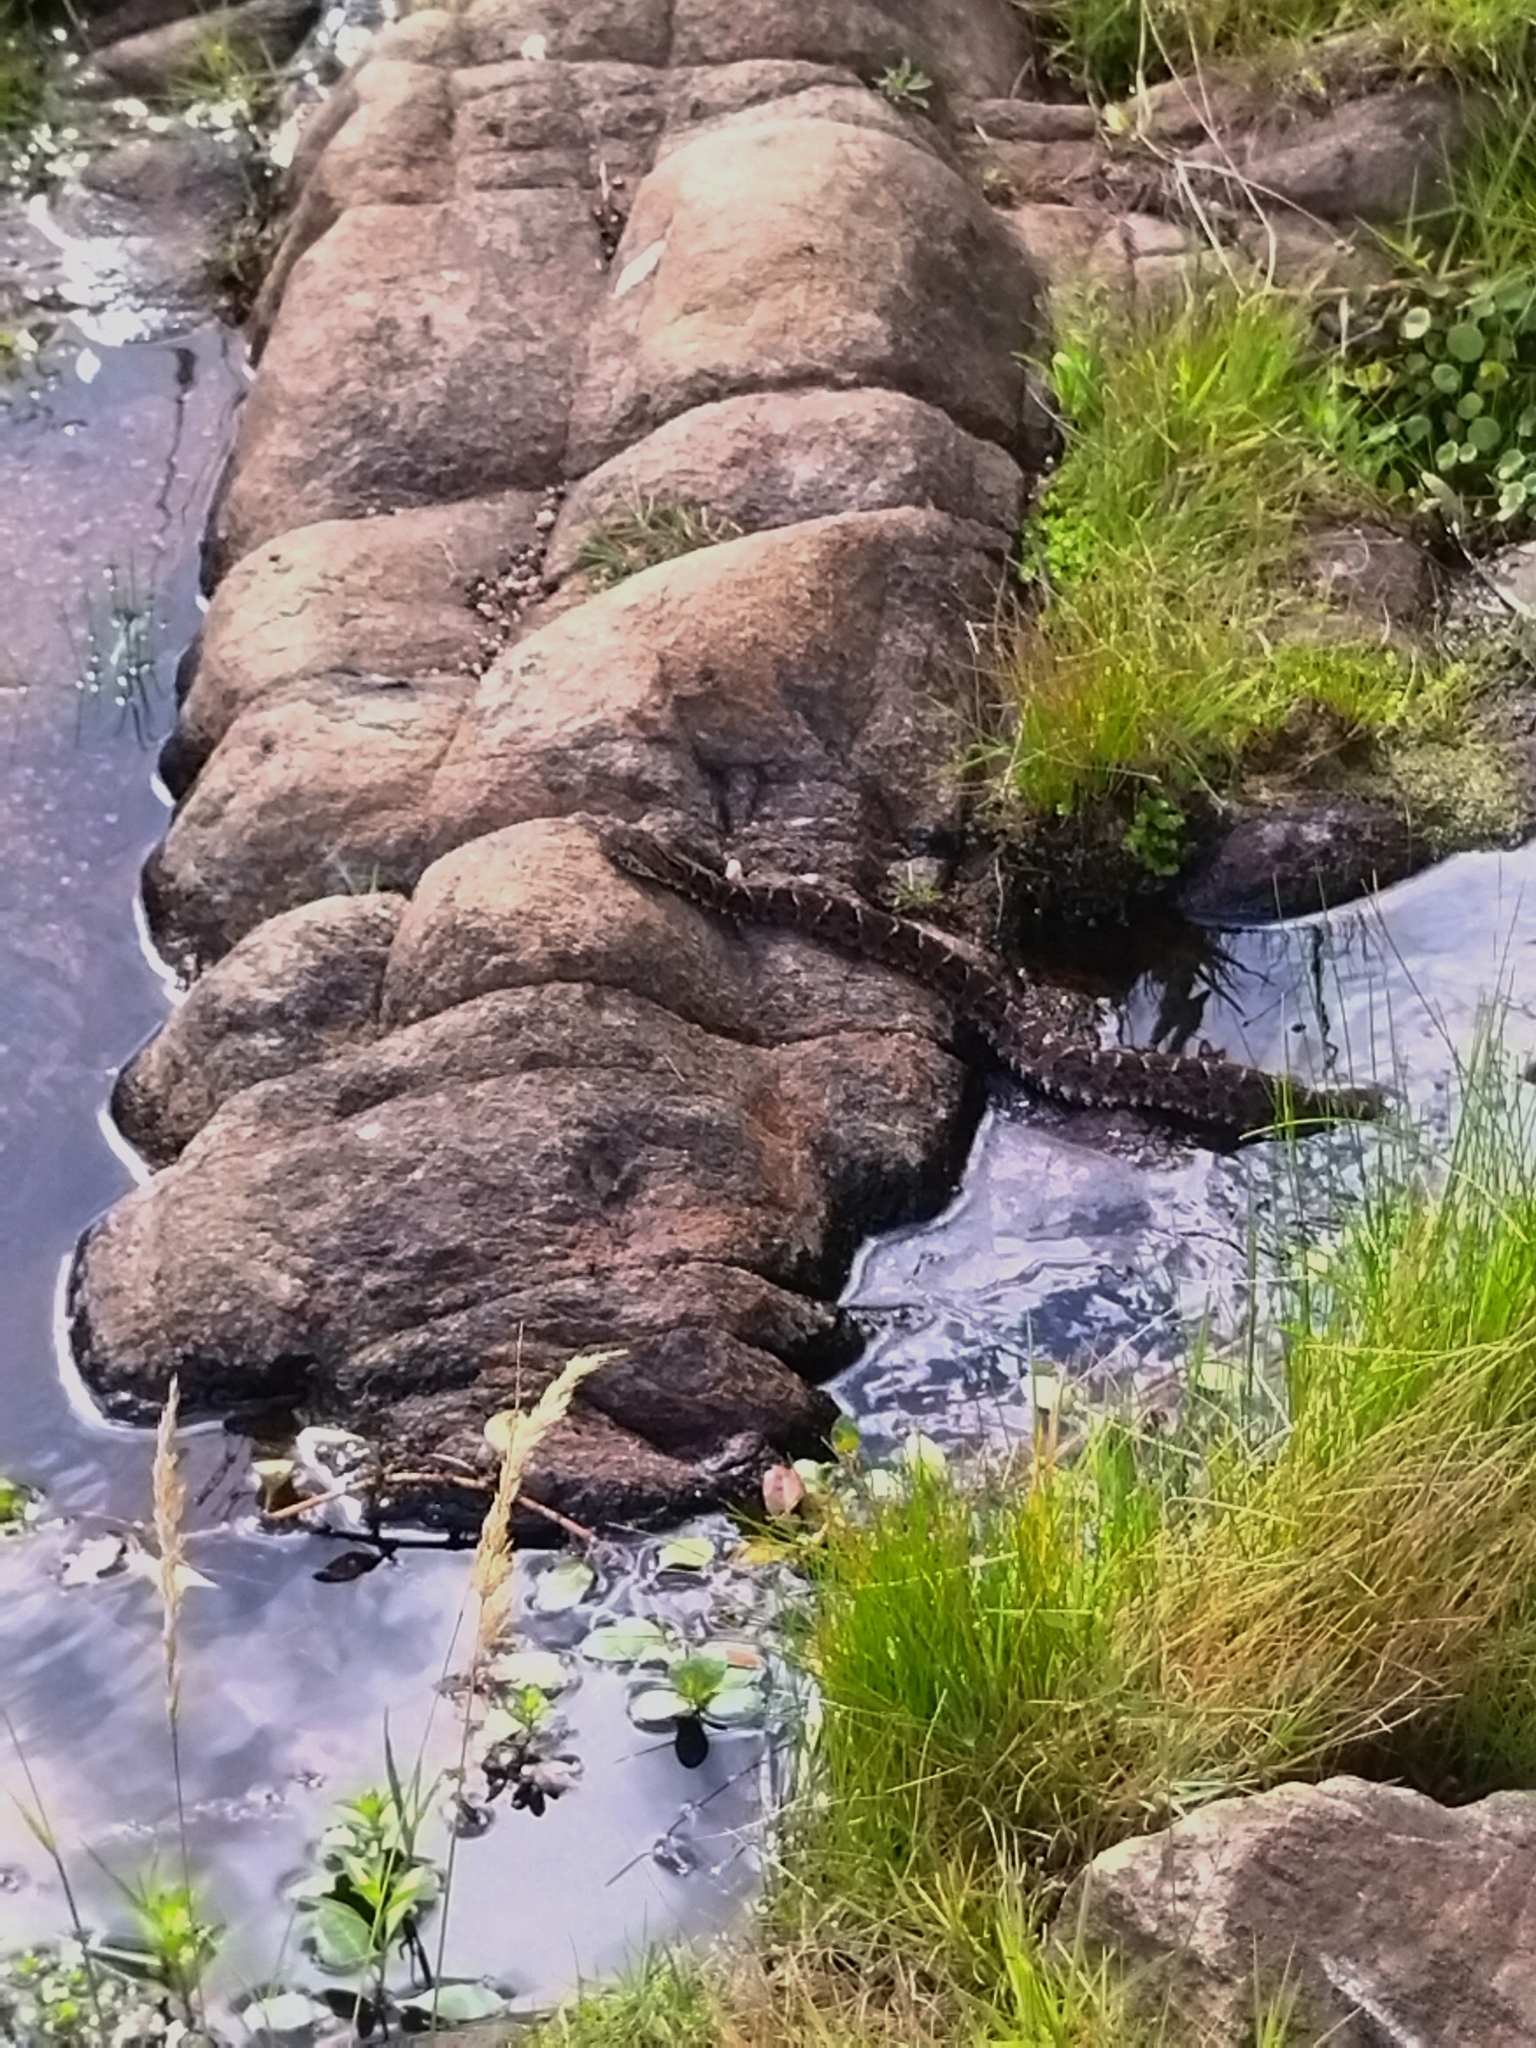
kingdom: Animalia
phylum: Chordata
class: Squamata
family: Viperidae
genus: Bothrops
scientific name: Bothrops pubescens
